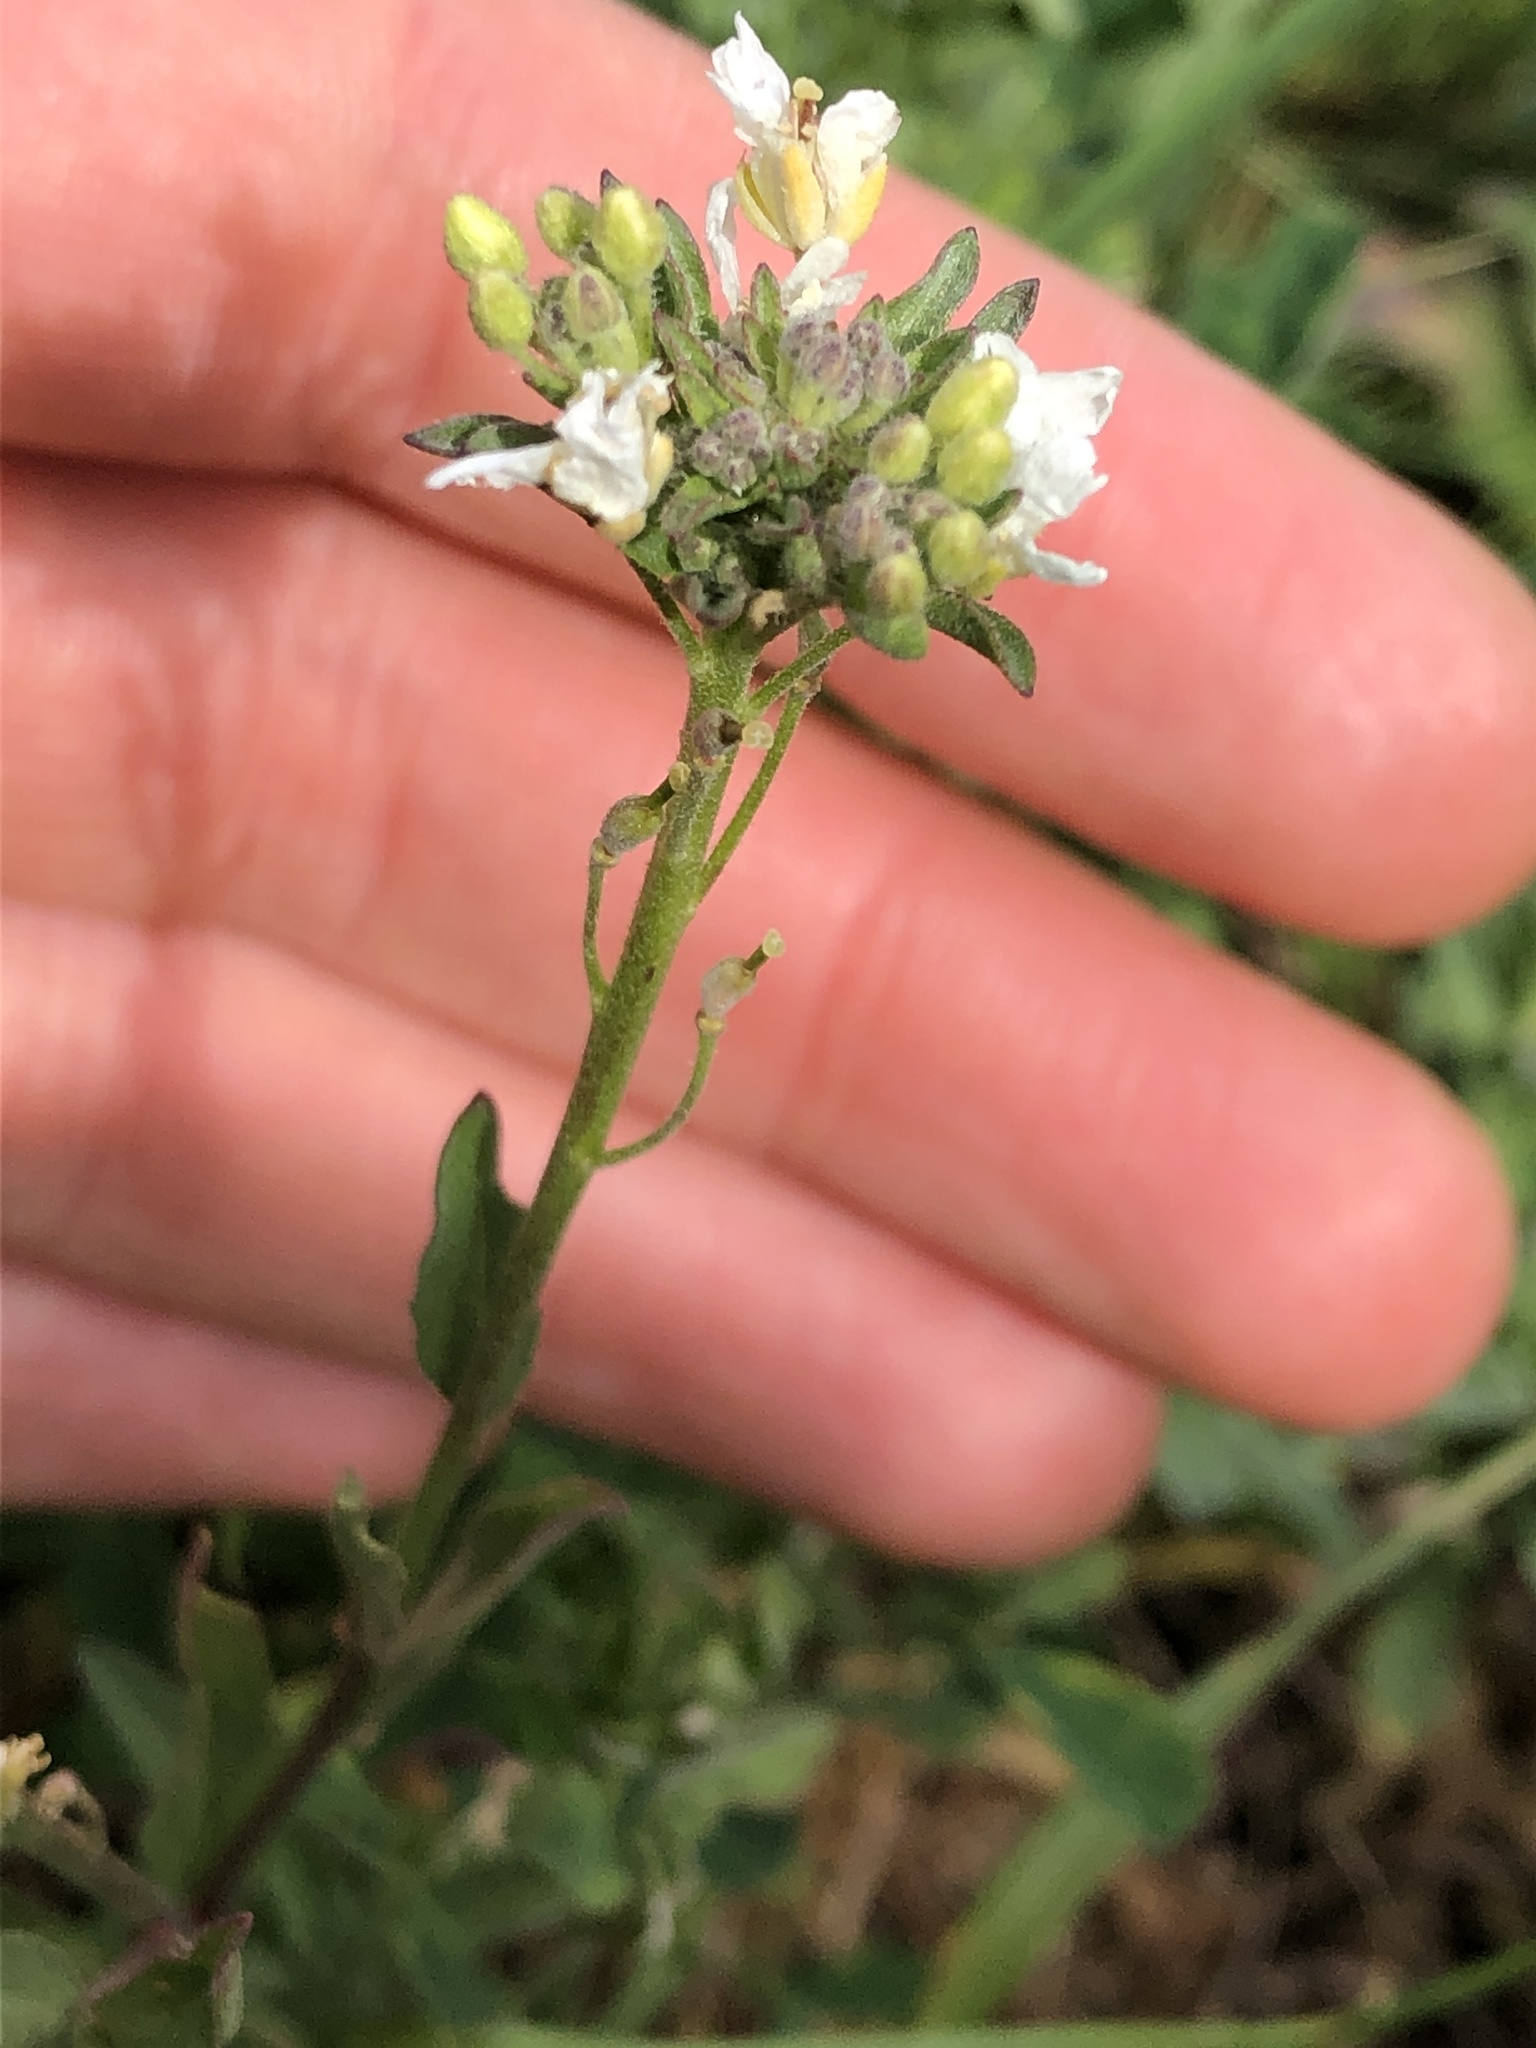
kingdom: Plantae
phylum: Tracheophyta
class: Magnoliopsida
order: Brassicales
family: Brassicaceae
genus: Berteroa
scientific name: Berteroa incana
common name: Hoary alison
